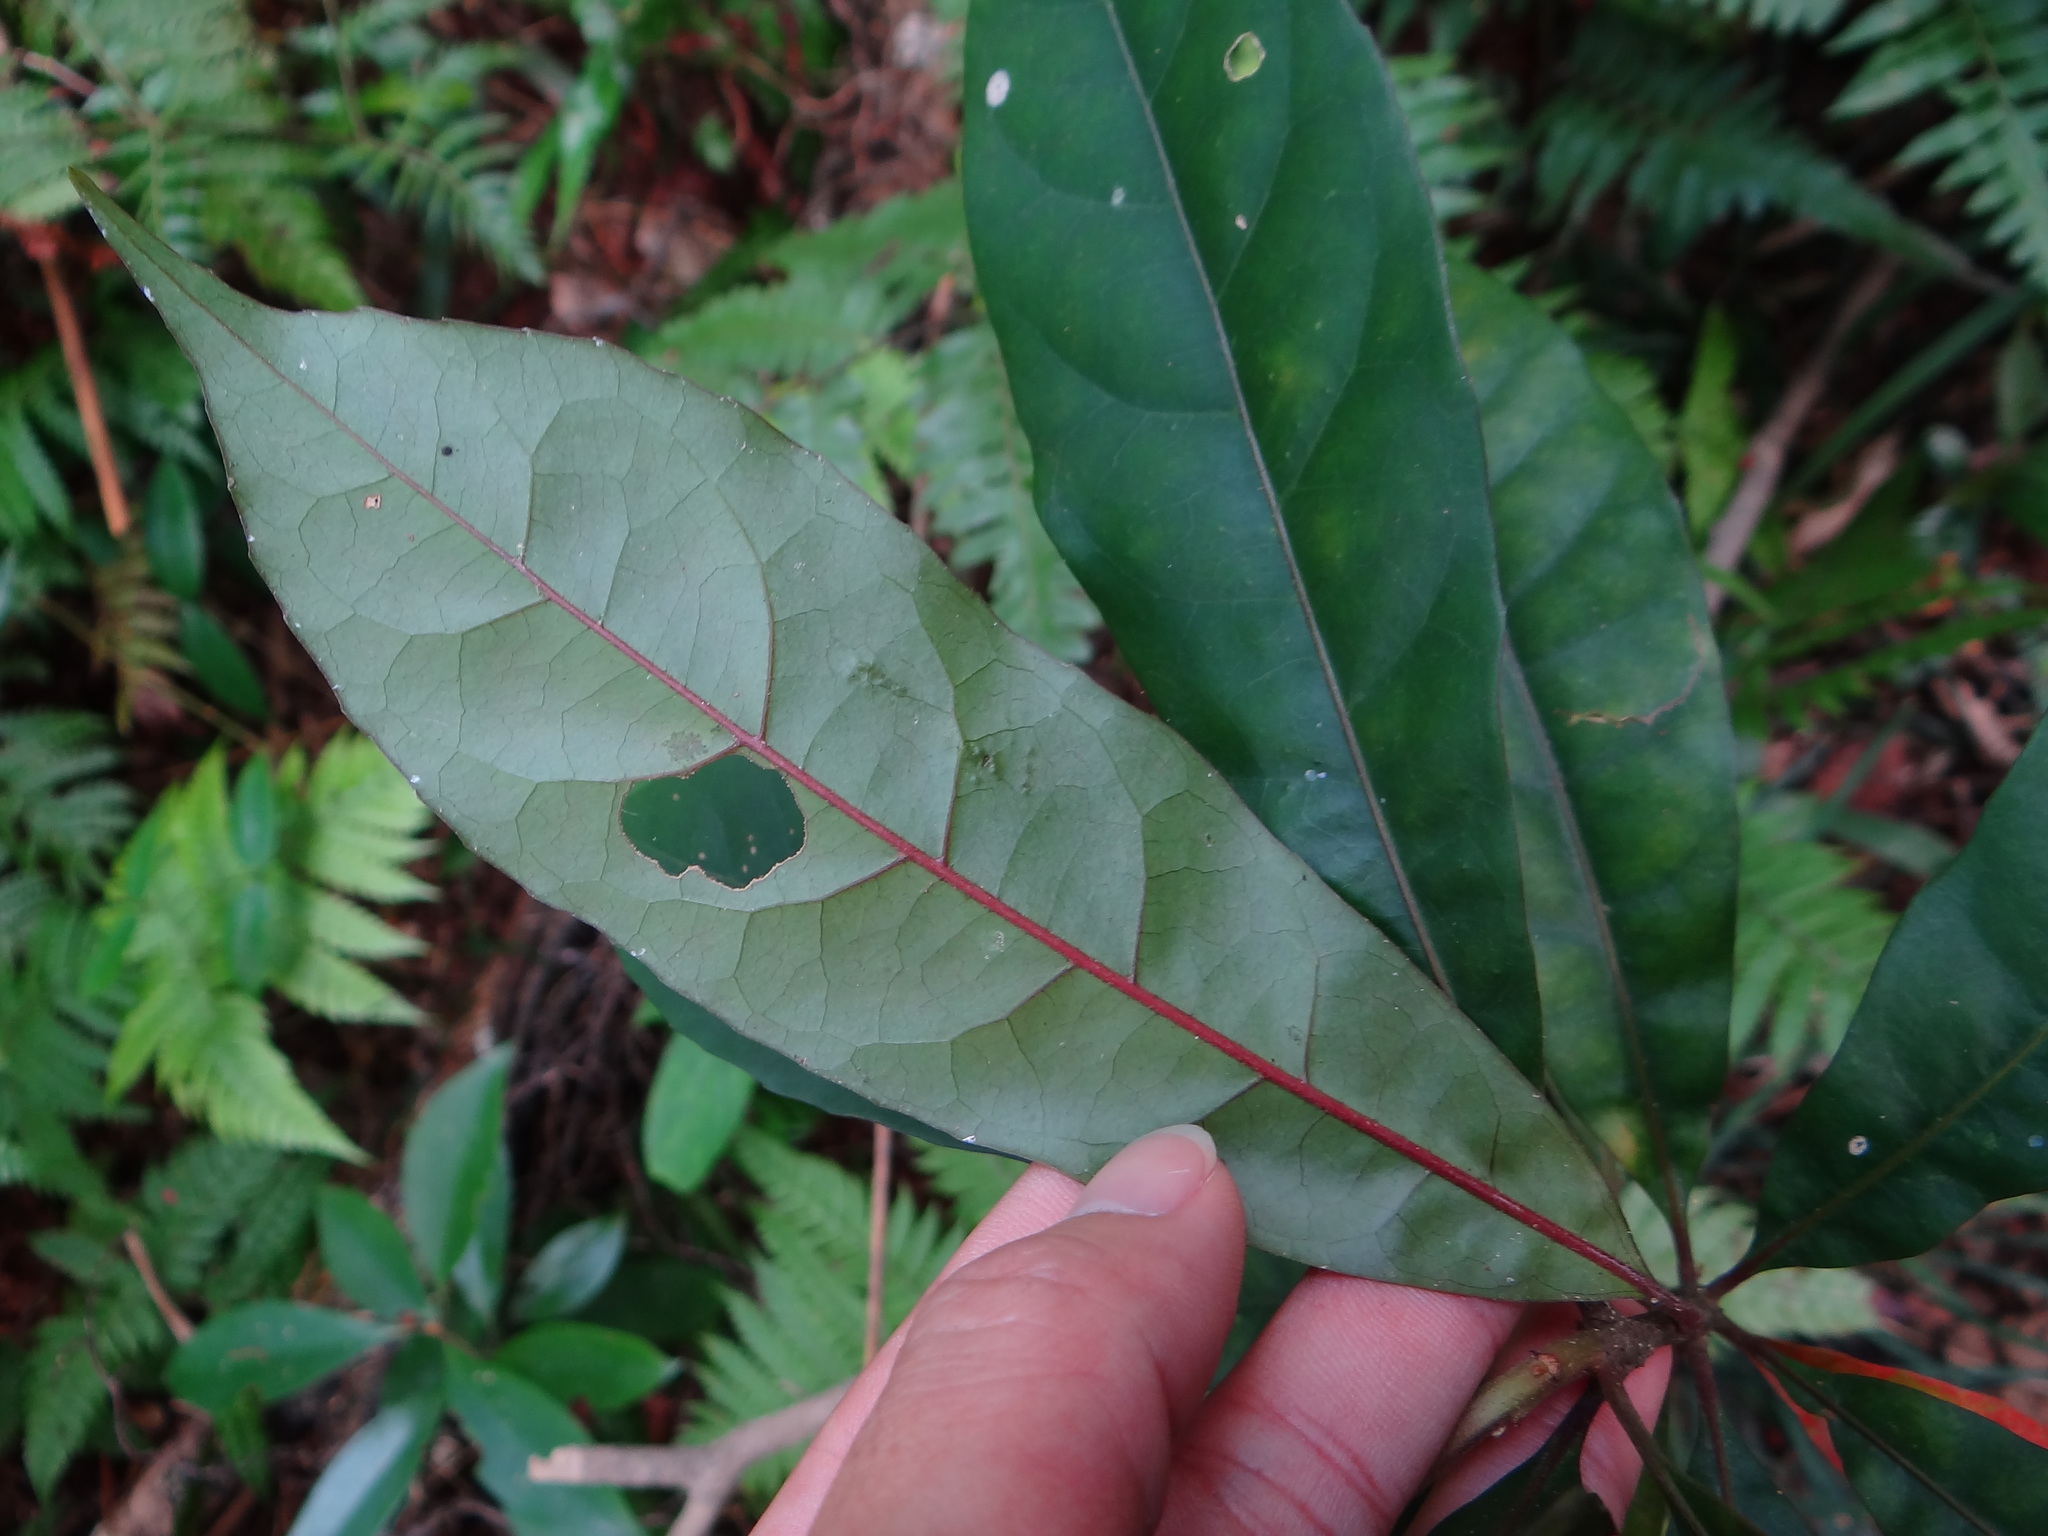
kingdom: Plantae
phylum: Tracheophyta
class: Magnoliopsida
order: Oxalidales
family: Elaeocarpaceae
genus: Elaeocarpus
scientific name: Elaeocarpus decipiens
